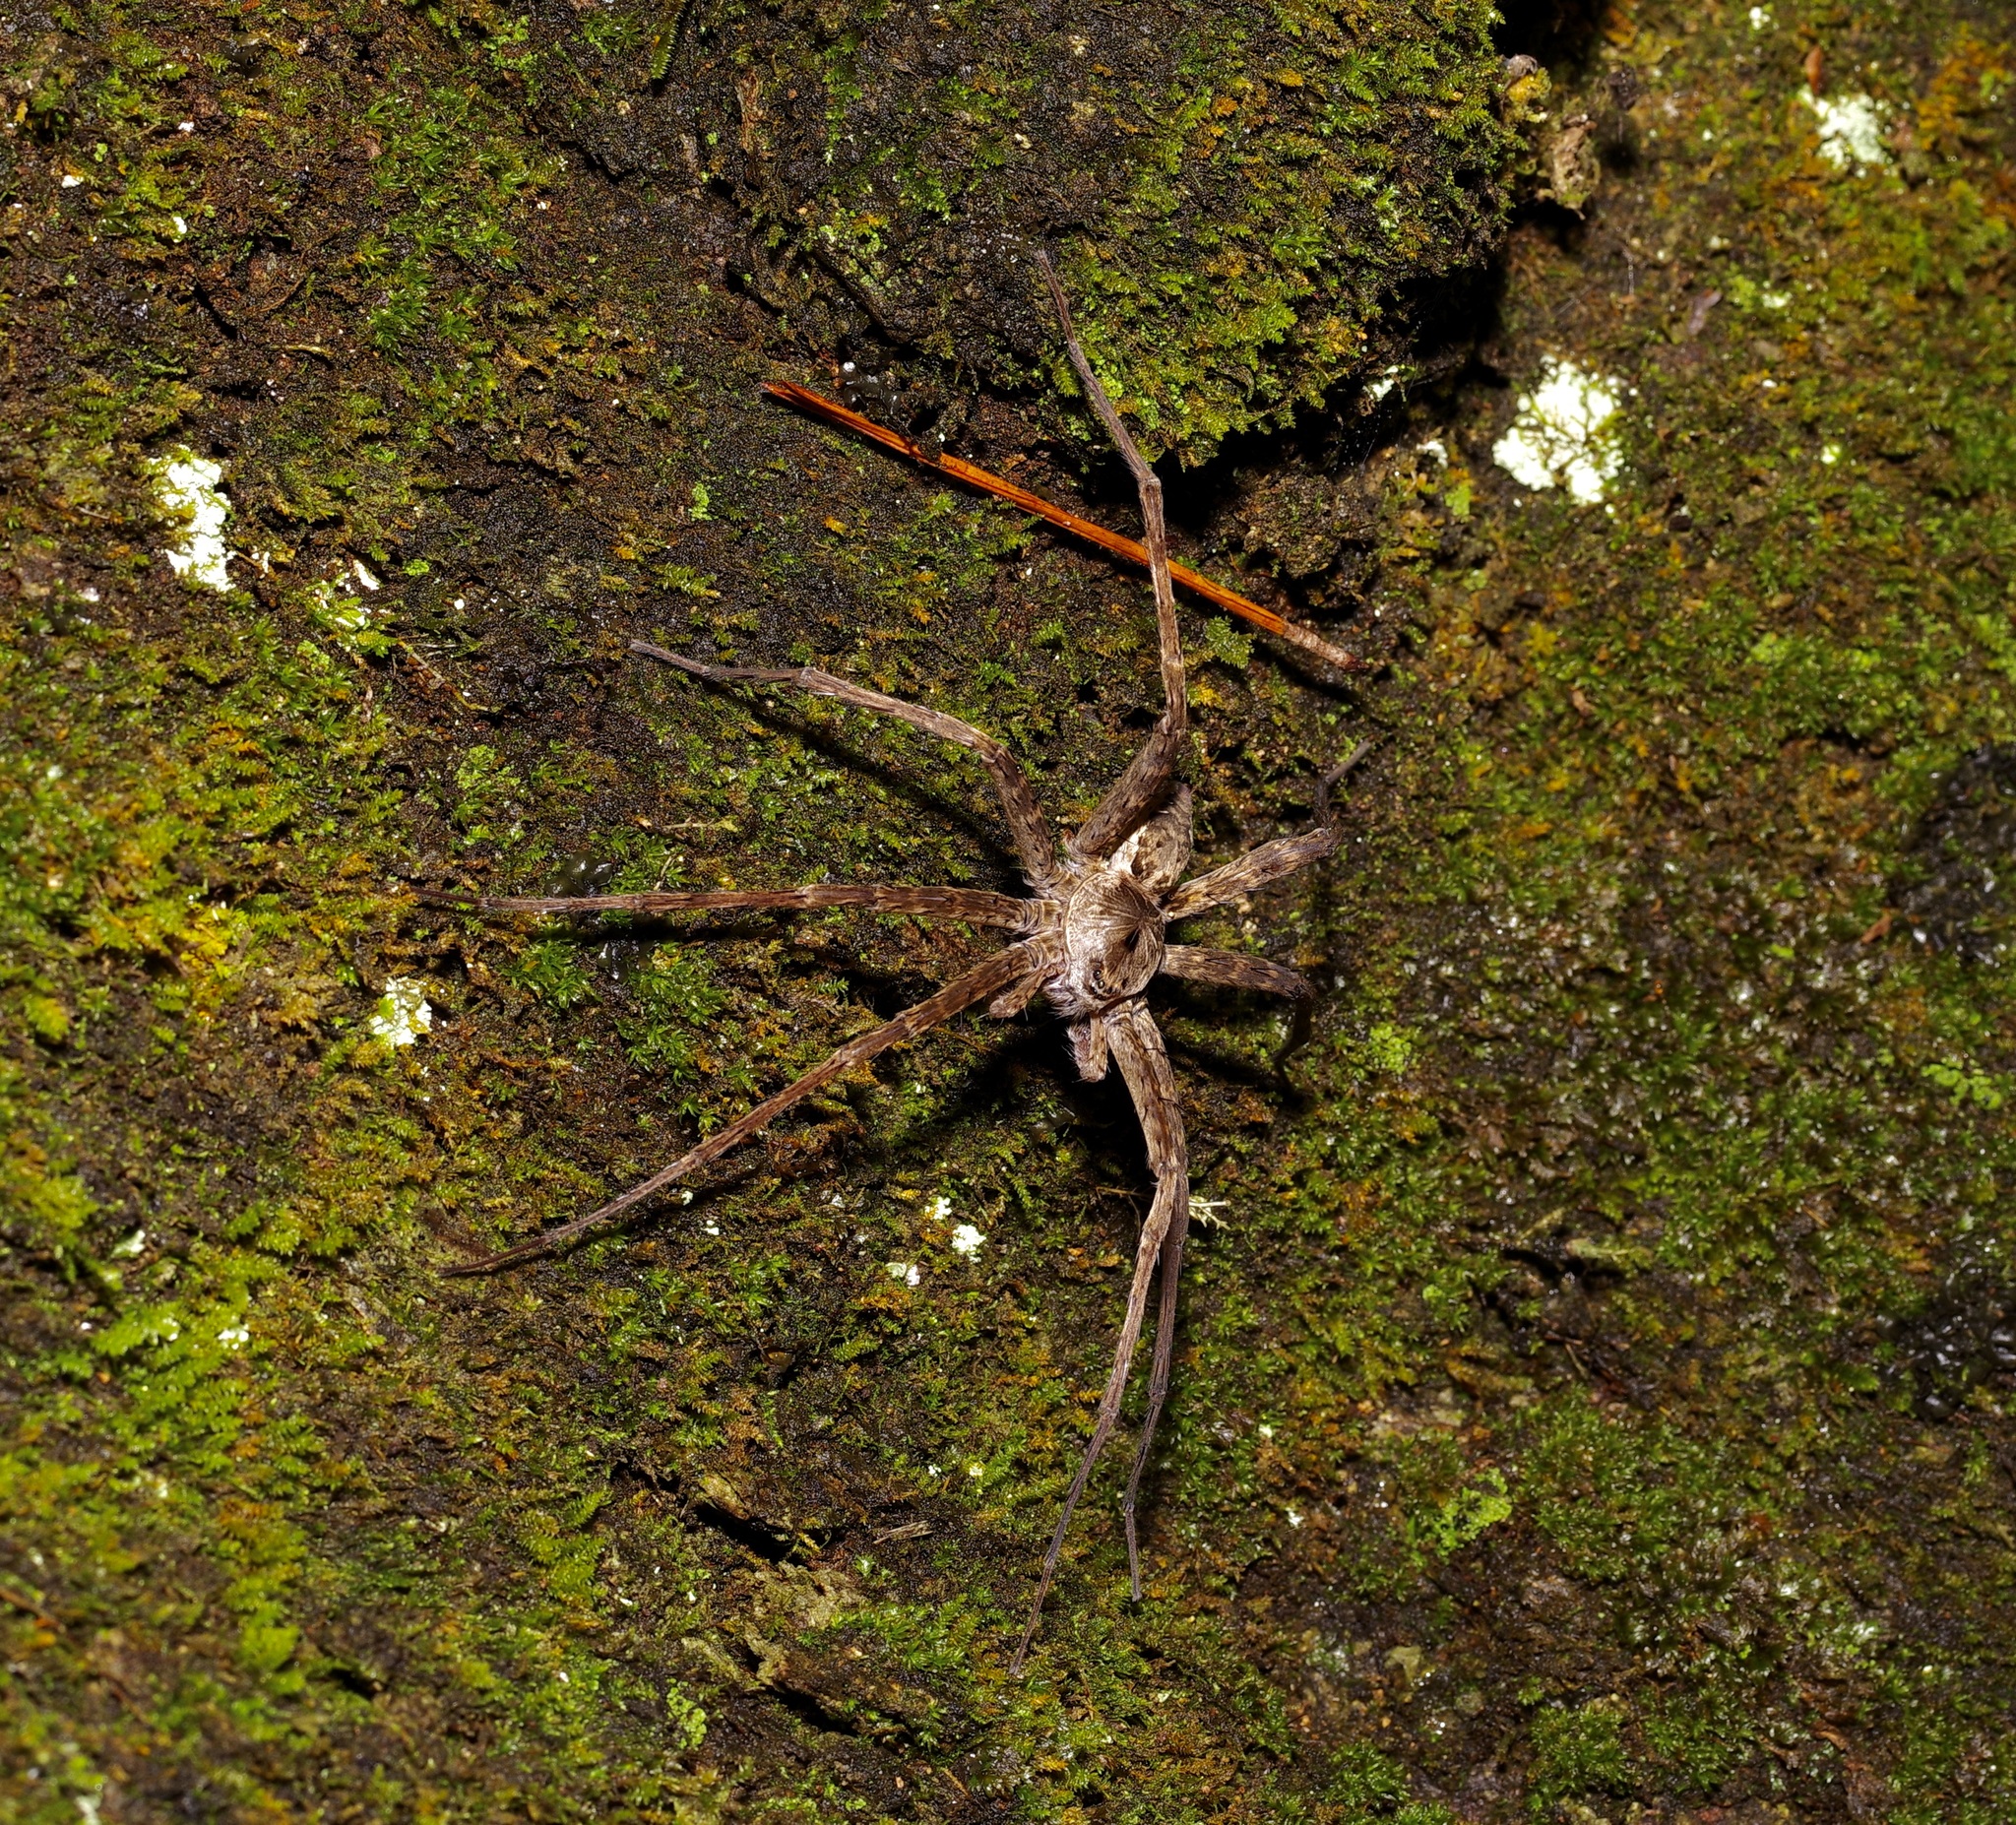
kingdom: Animalia
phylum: Arthropoda
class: Arachnida
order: Araneae
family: Pisauridae
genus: Dolomedes
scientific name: Dolomedes vittatus
